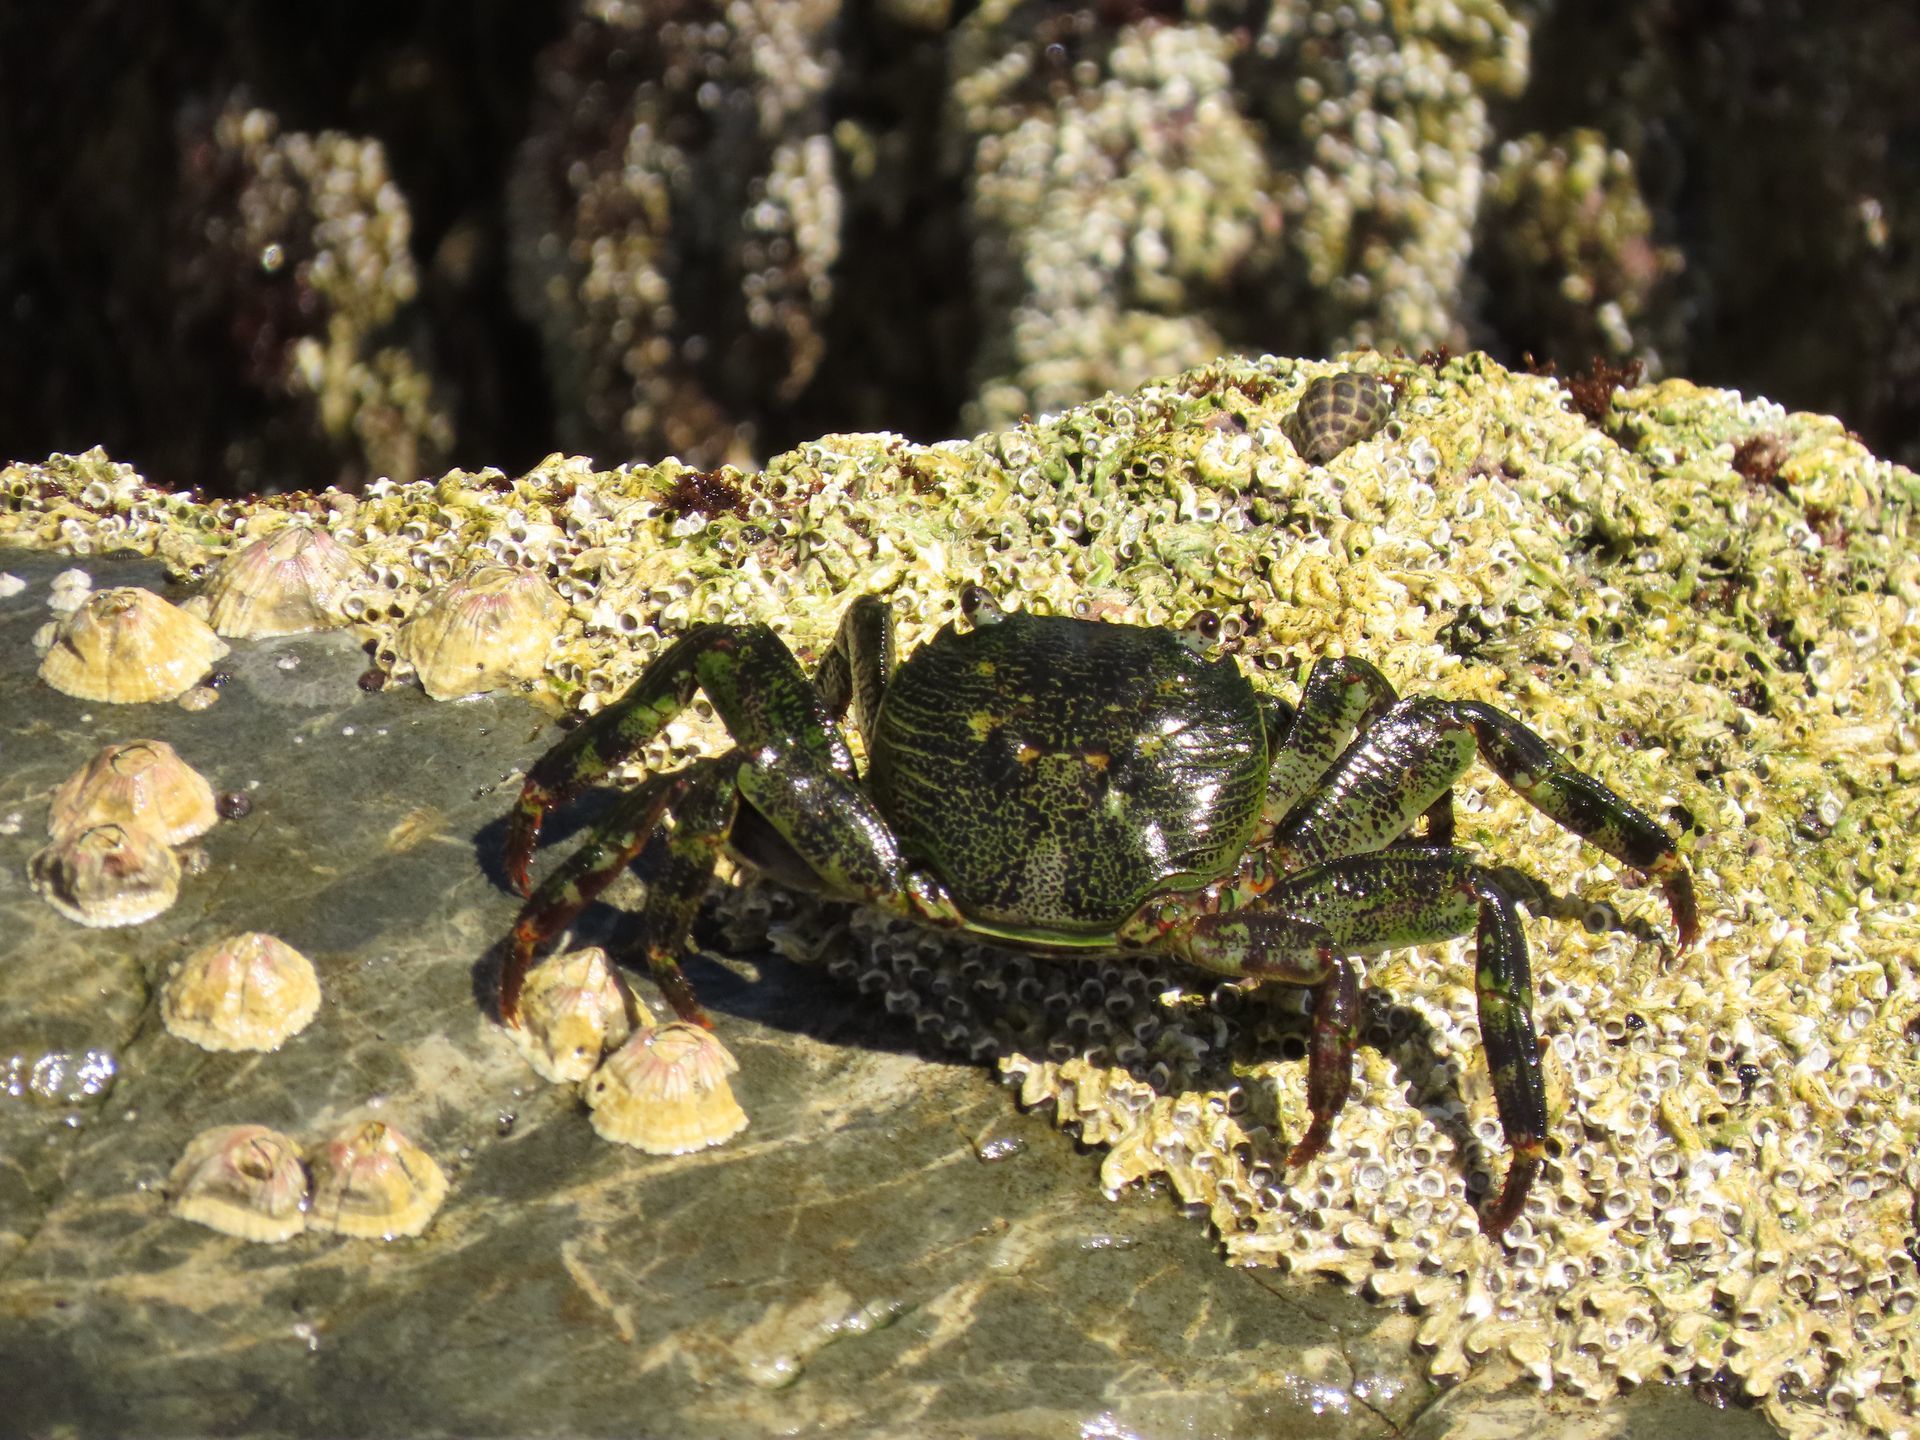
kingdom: Animalia
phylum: Arthropoda
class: Malacostraca
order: Decapoda
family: Grapsidae
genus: Leptograpsus
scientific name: Leptograpsus variegatus
